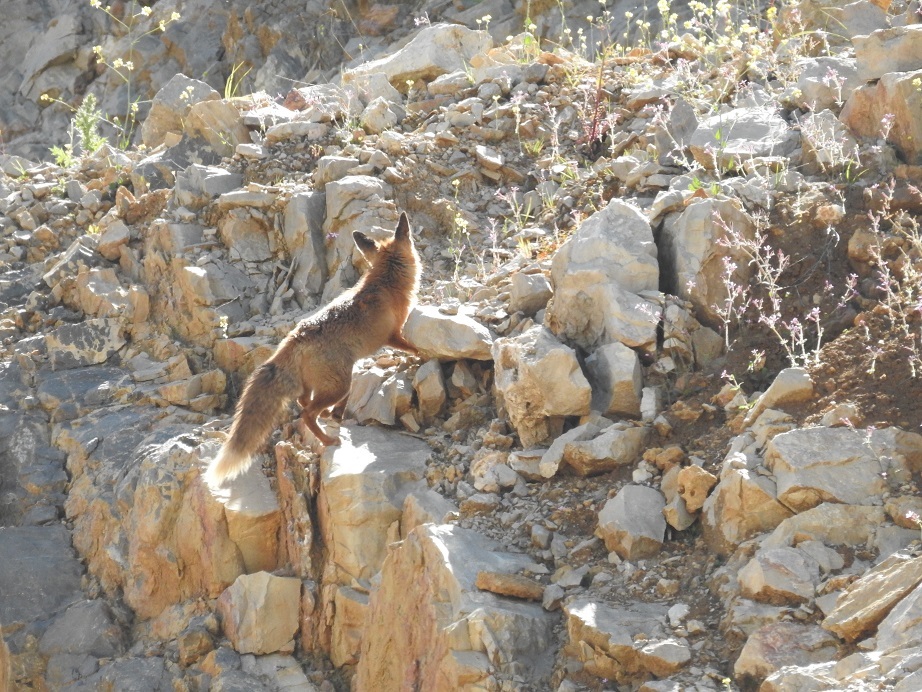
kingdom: Animalia
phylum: Chordata
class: Mammalia
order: Carnivora
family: Canidae
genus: Vulpes
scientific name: Vulpes vulpes
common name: Red fox
